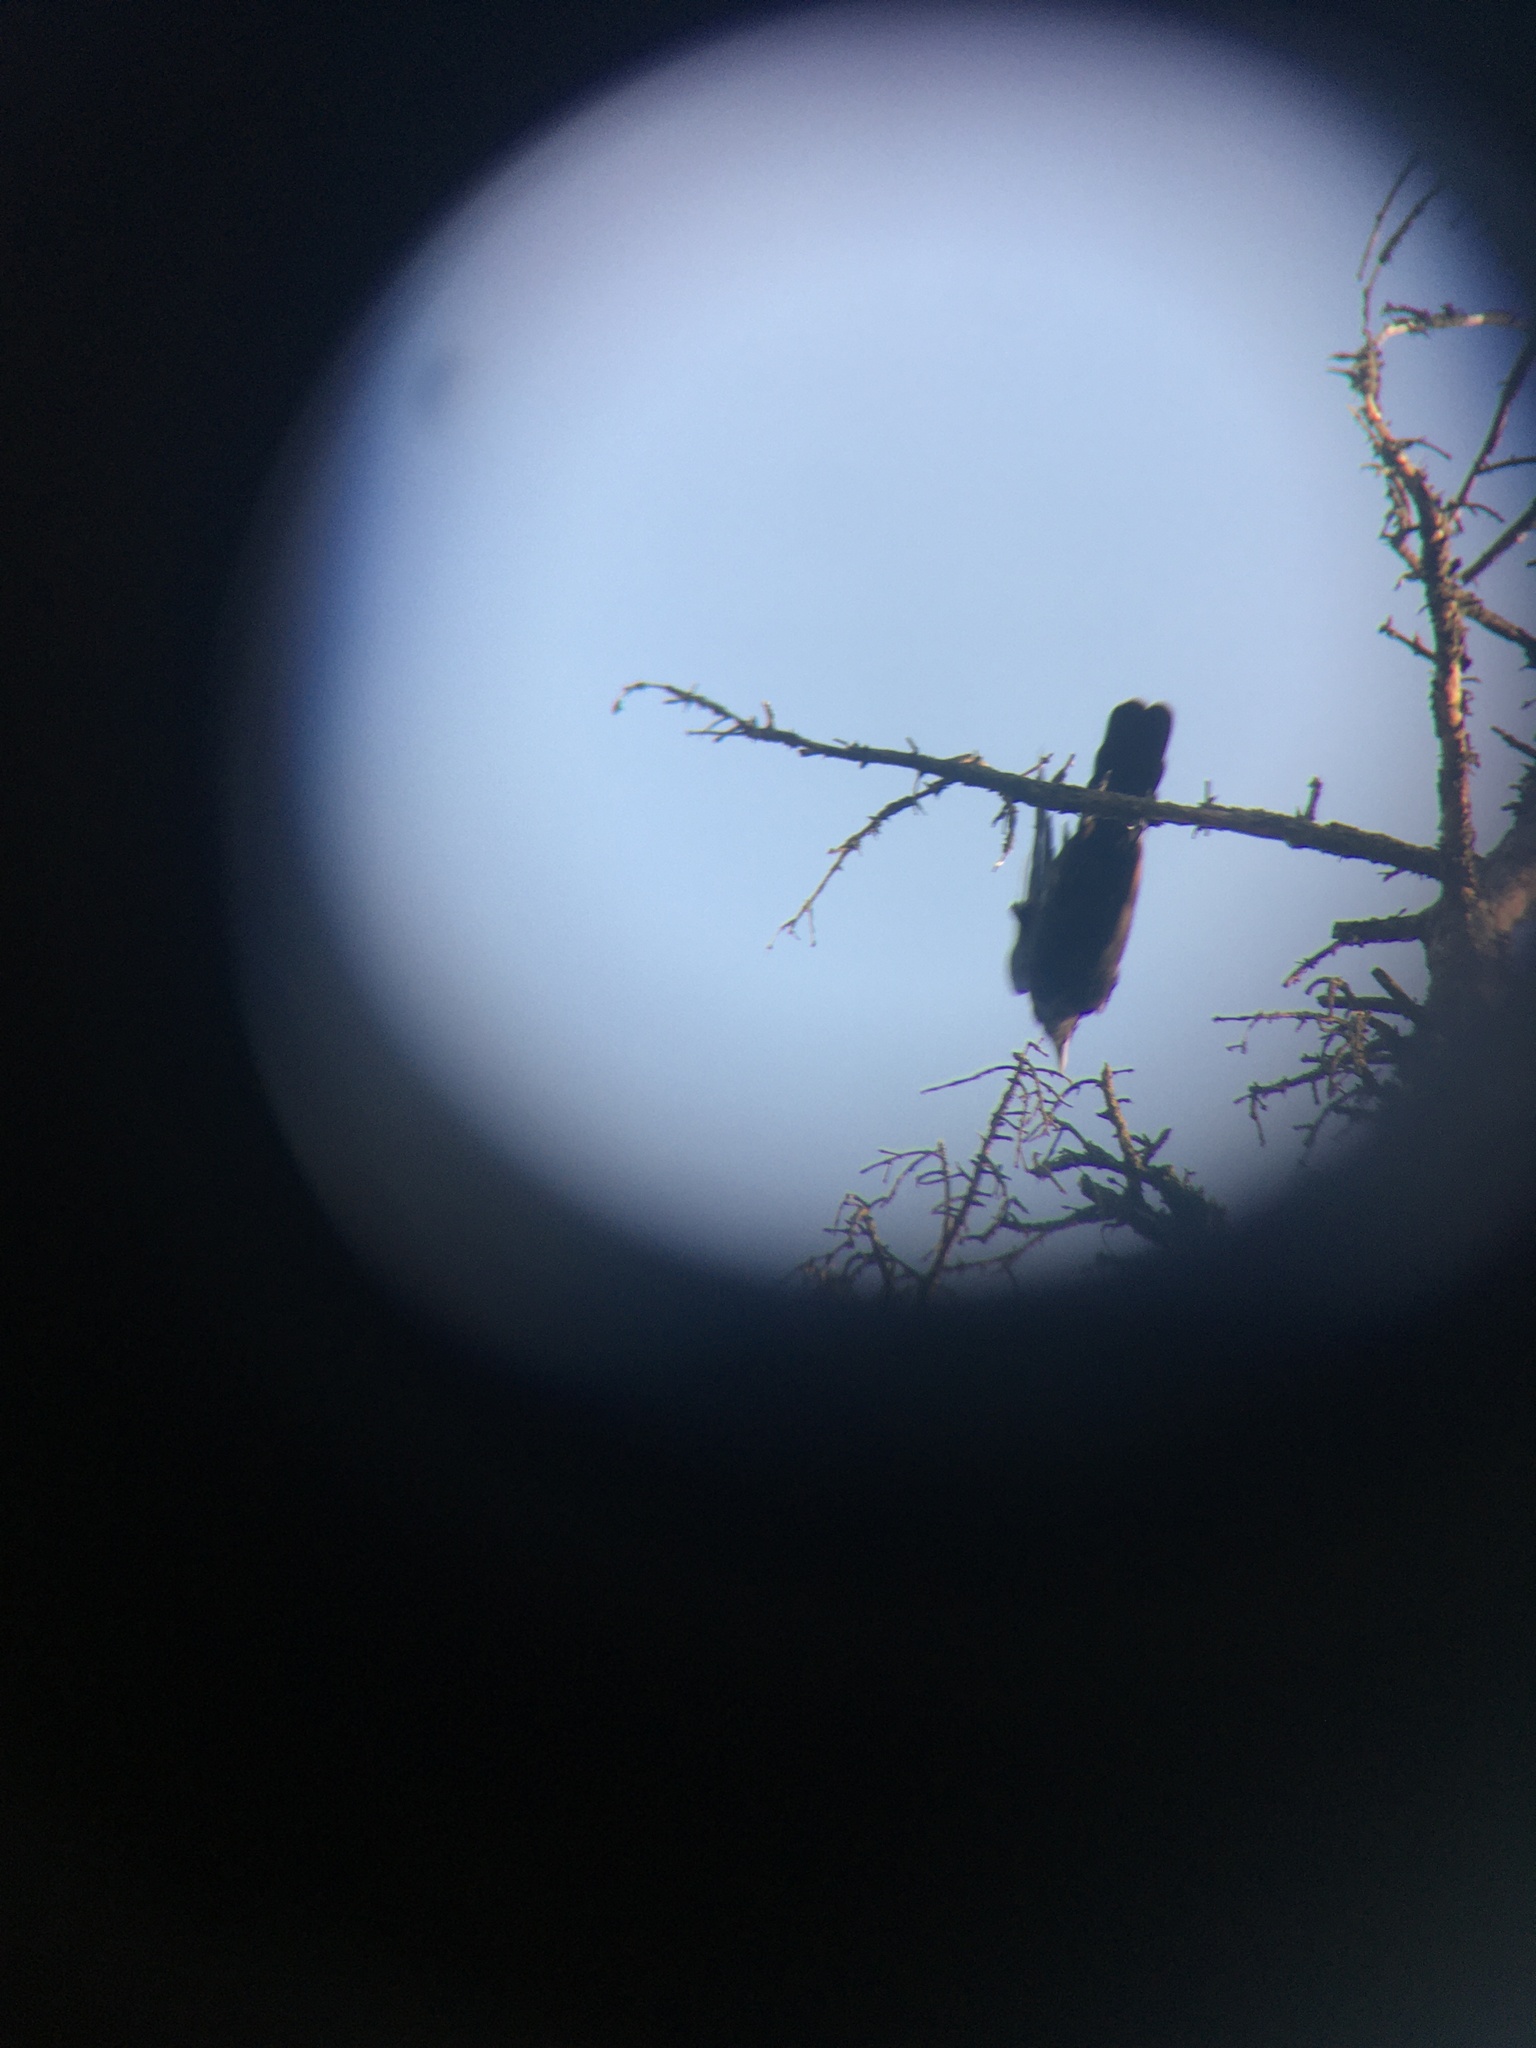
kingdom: Animalia
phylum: Chordata
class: Aves
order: Passeriformes
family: Corvidae
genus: Corvus
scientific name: Corvus
